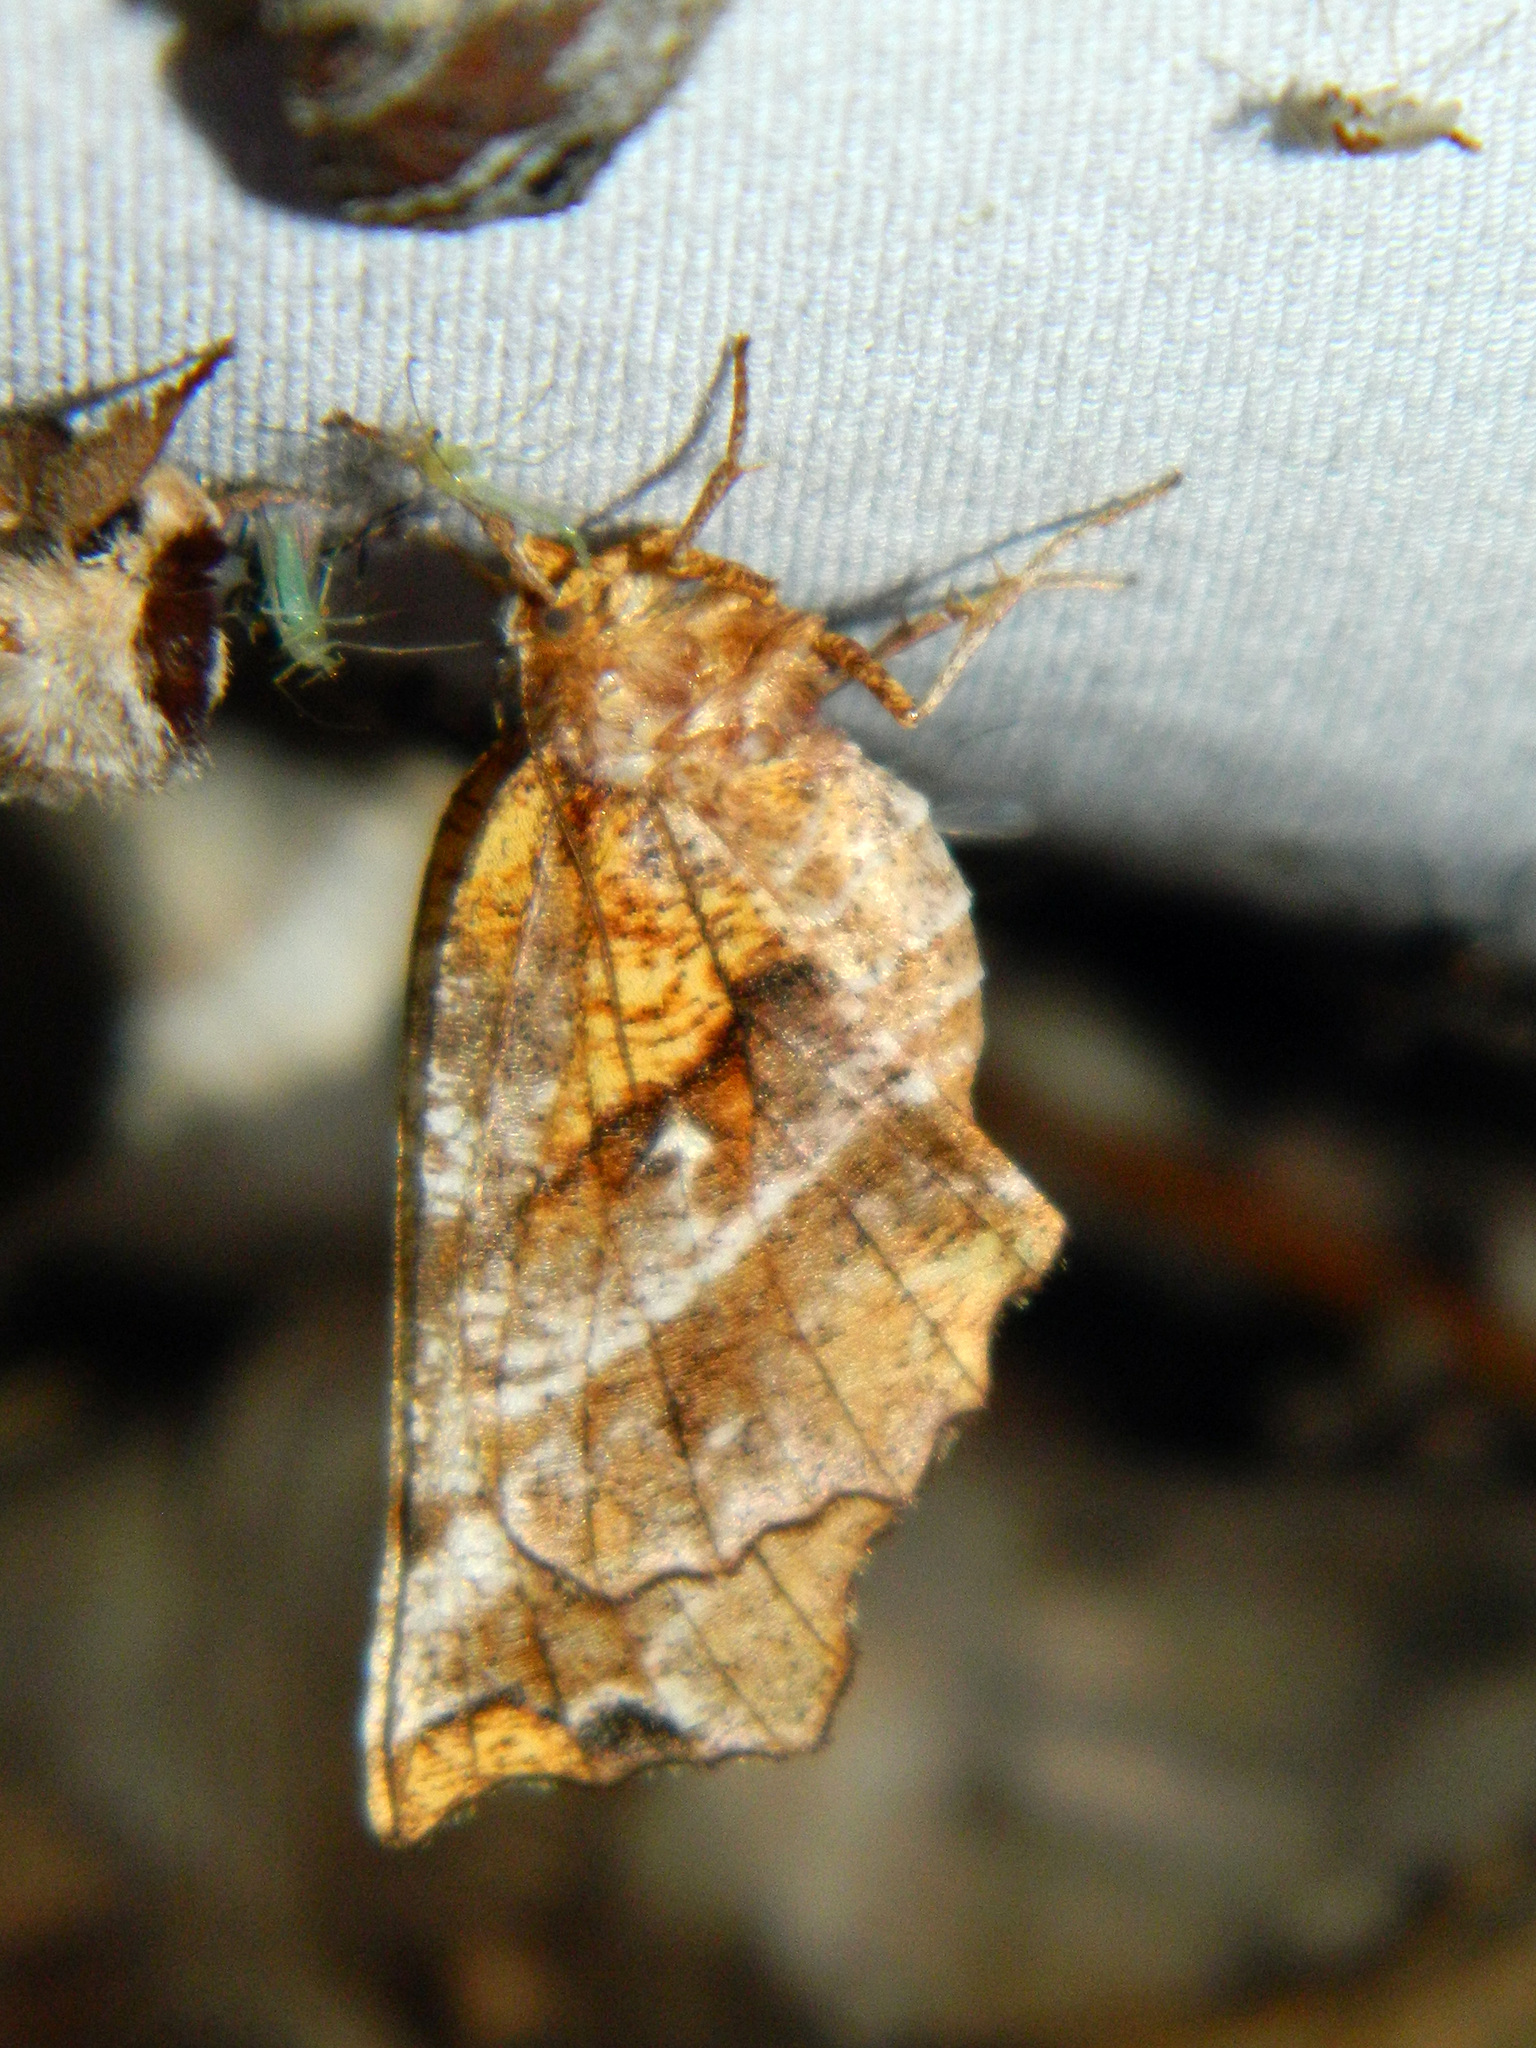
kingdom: Animalia
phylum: Arthropoda
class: Insecta
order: Lepidoptera
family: Geometridae
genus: Selenia
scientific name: Selenia alciphearia
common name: Brown-tipped thorn
